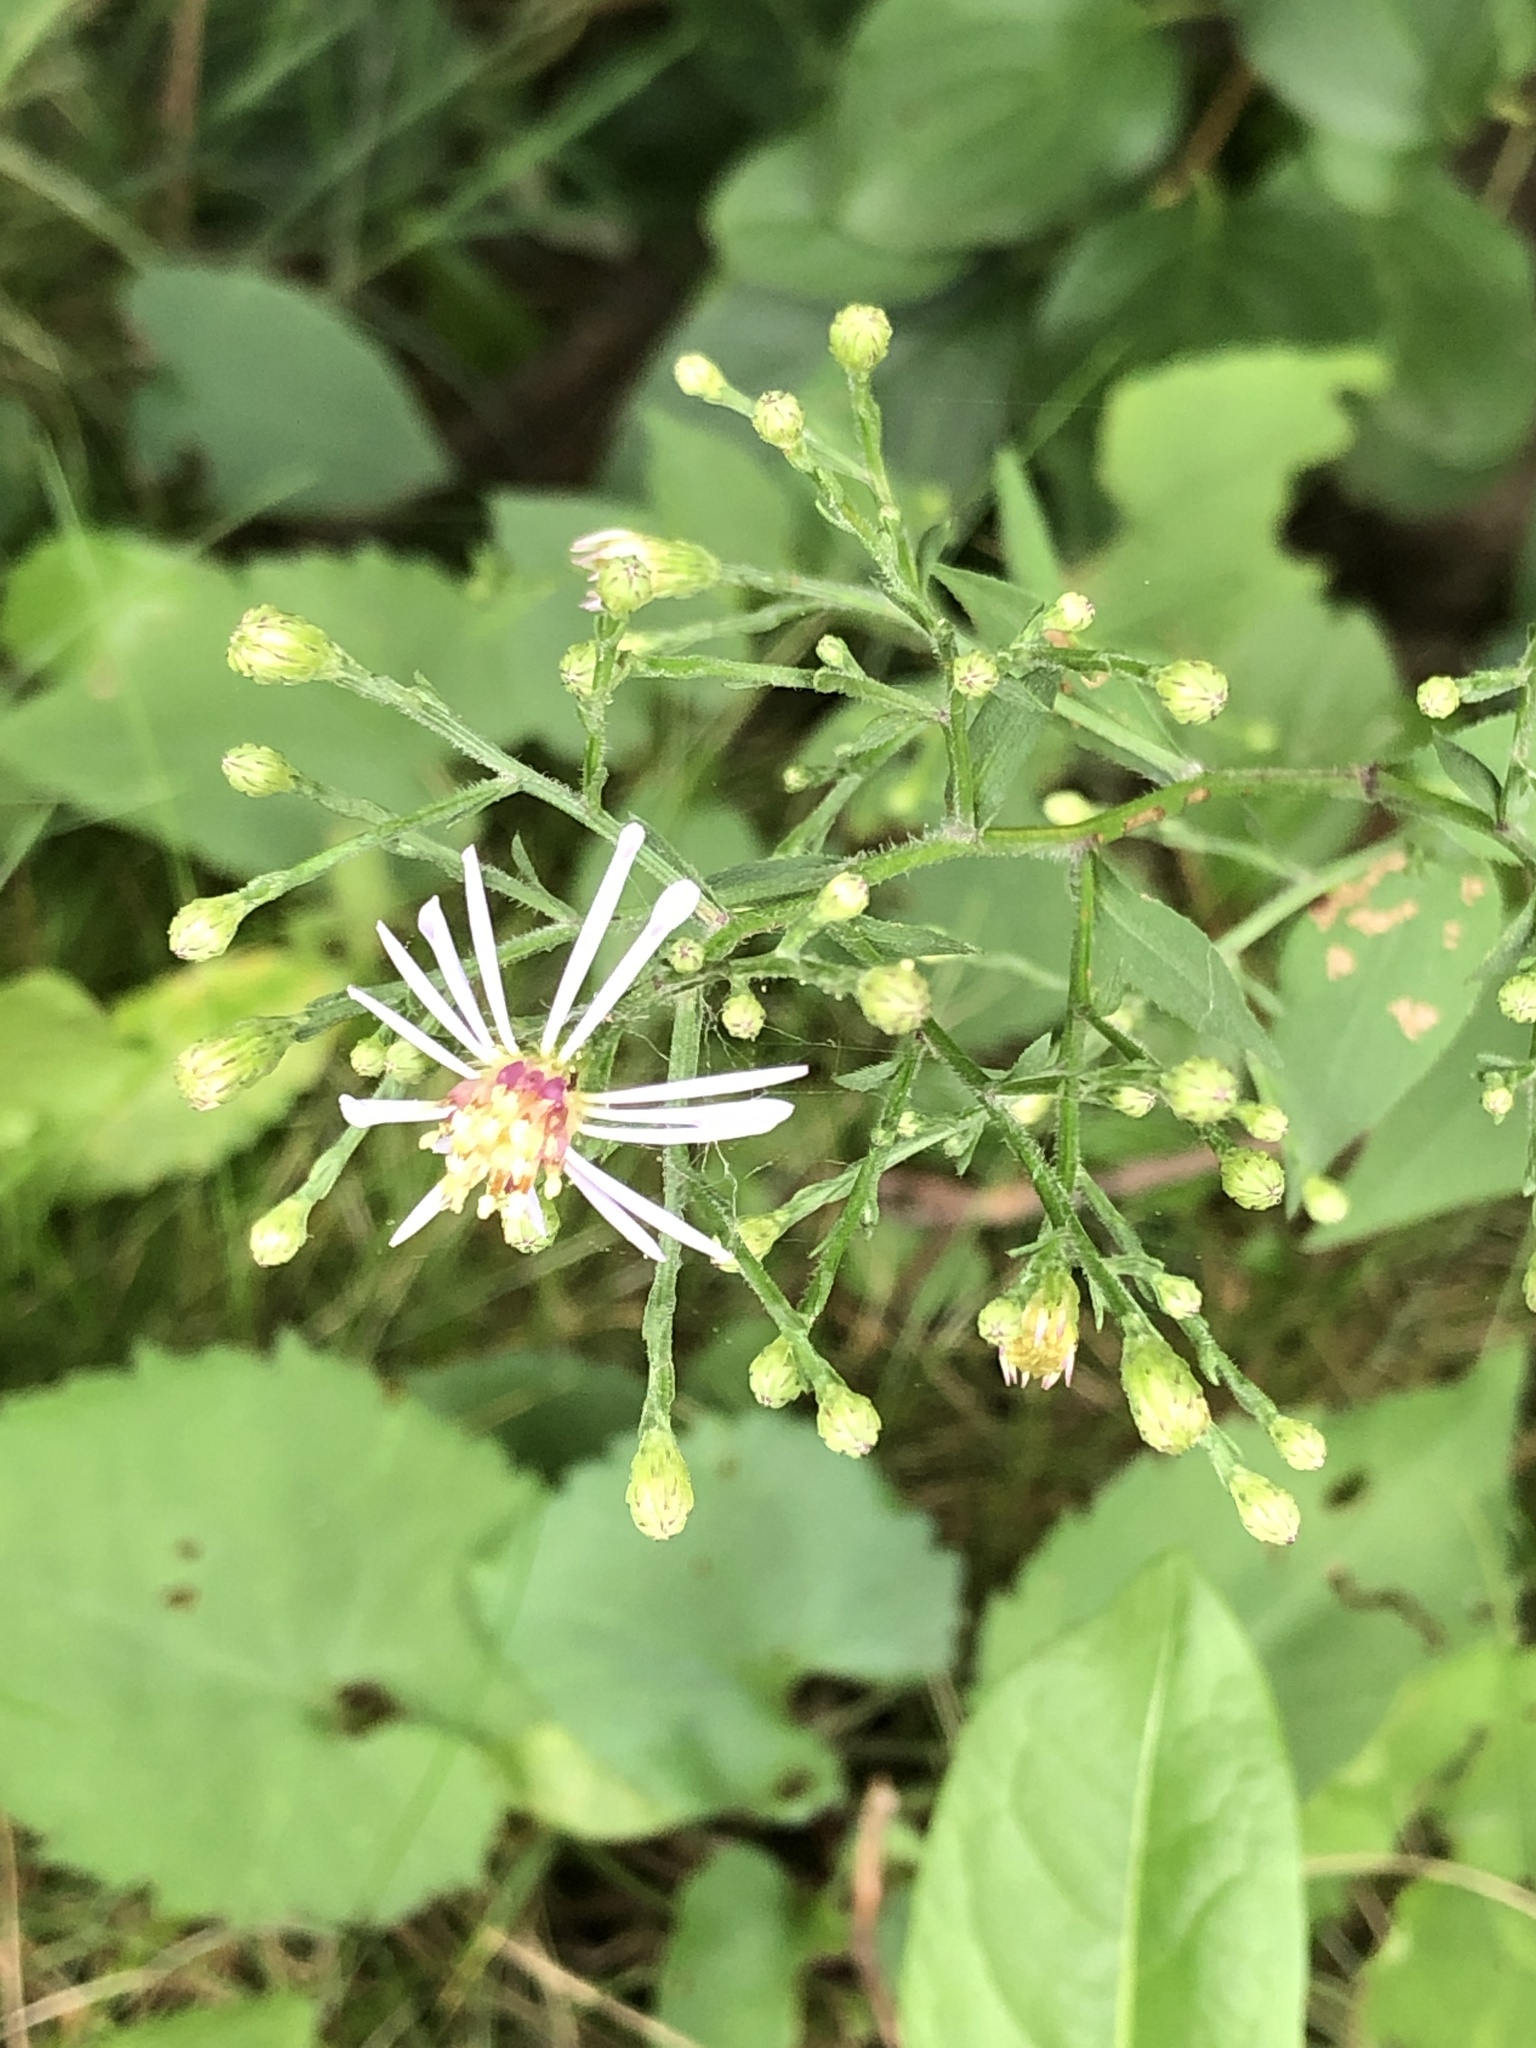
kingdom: Plantae
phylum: Tracheophyta
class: Magnoliopsida
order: Asterales
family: Asteraceae
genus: Eurybia
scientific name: Eurybia macrophylla
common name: Big-leaved aster
